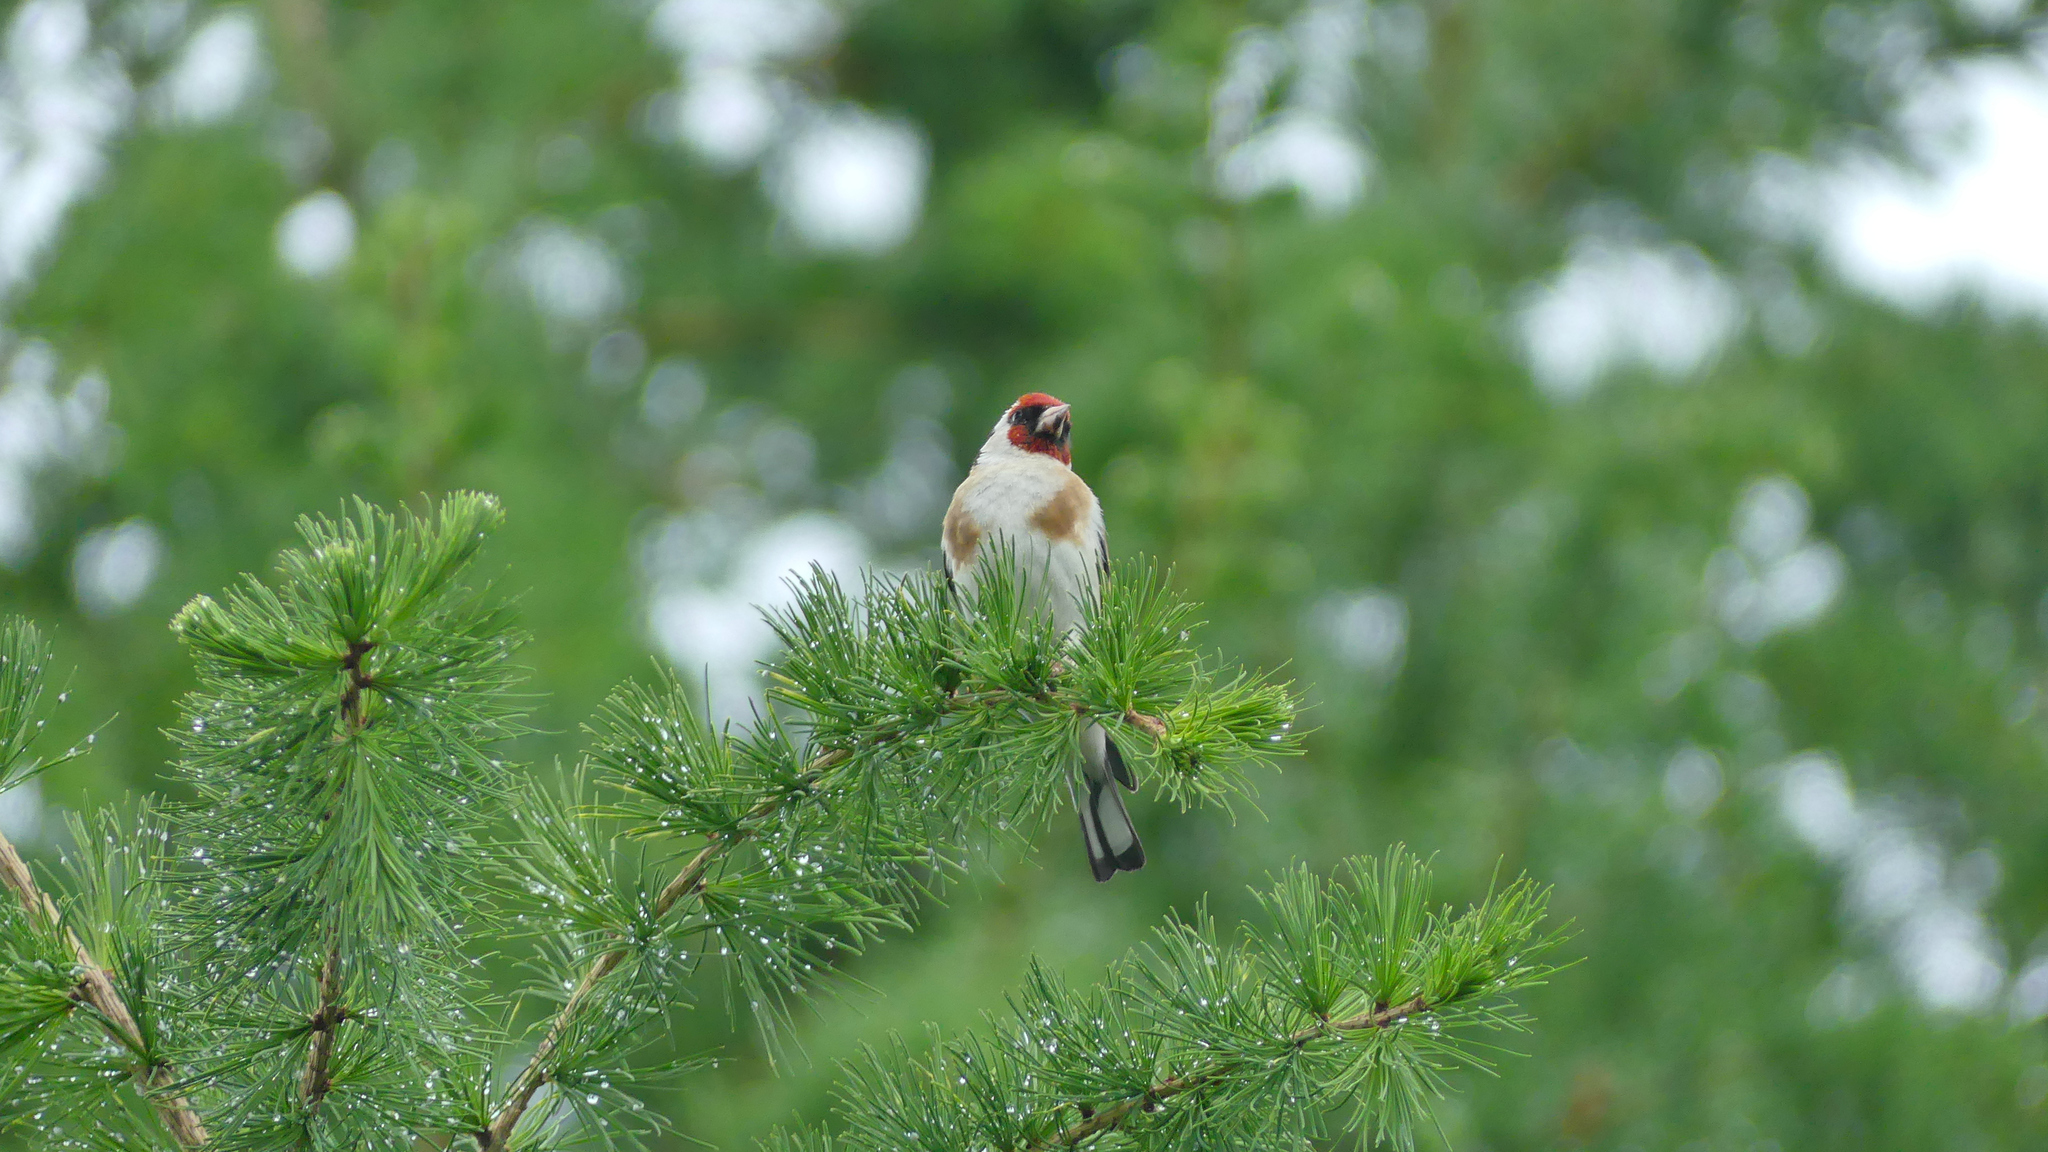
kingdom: Animalia
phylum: Chordata
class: Aves
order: Passeriformes
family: Fringillidae
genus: Carduelis
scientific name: Carduelis carduelis
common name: European goldfinch
